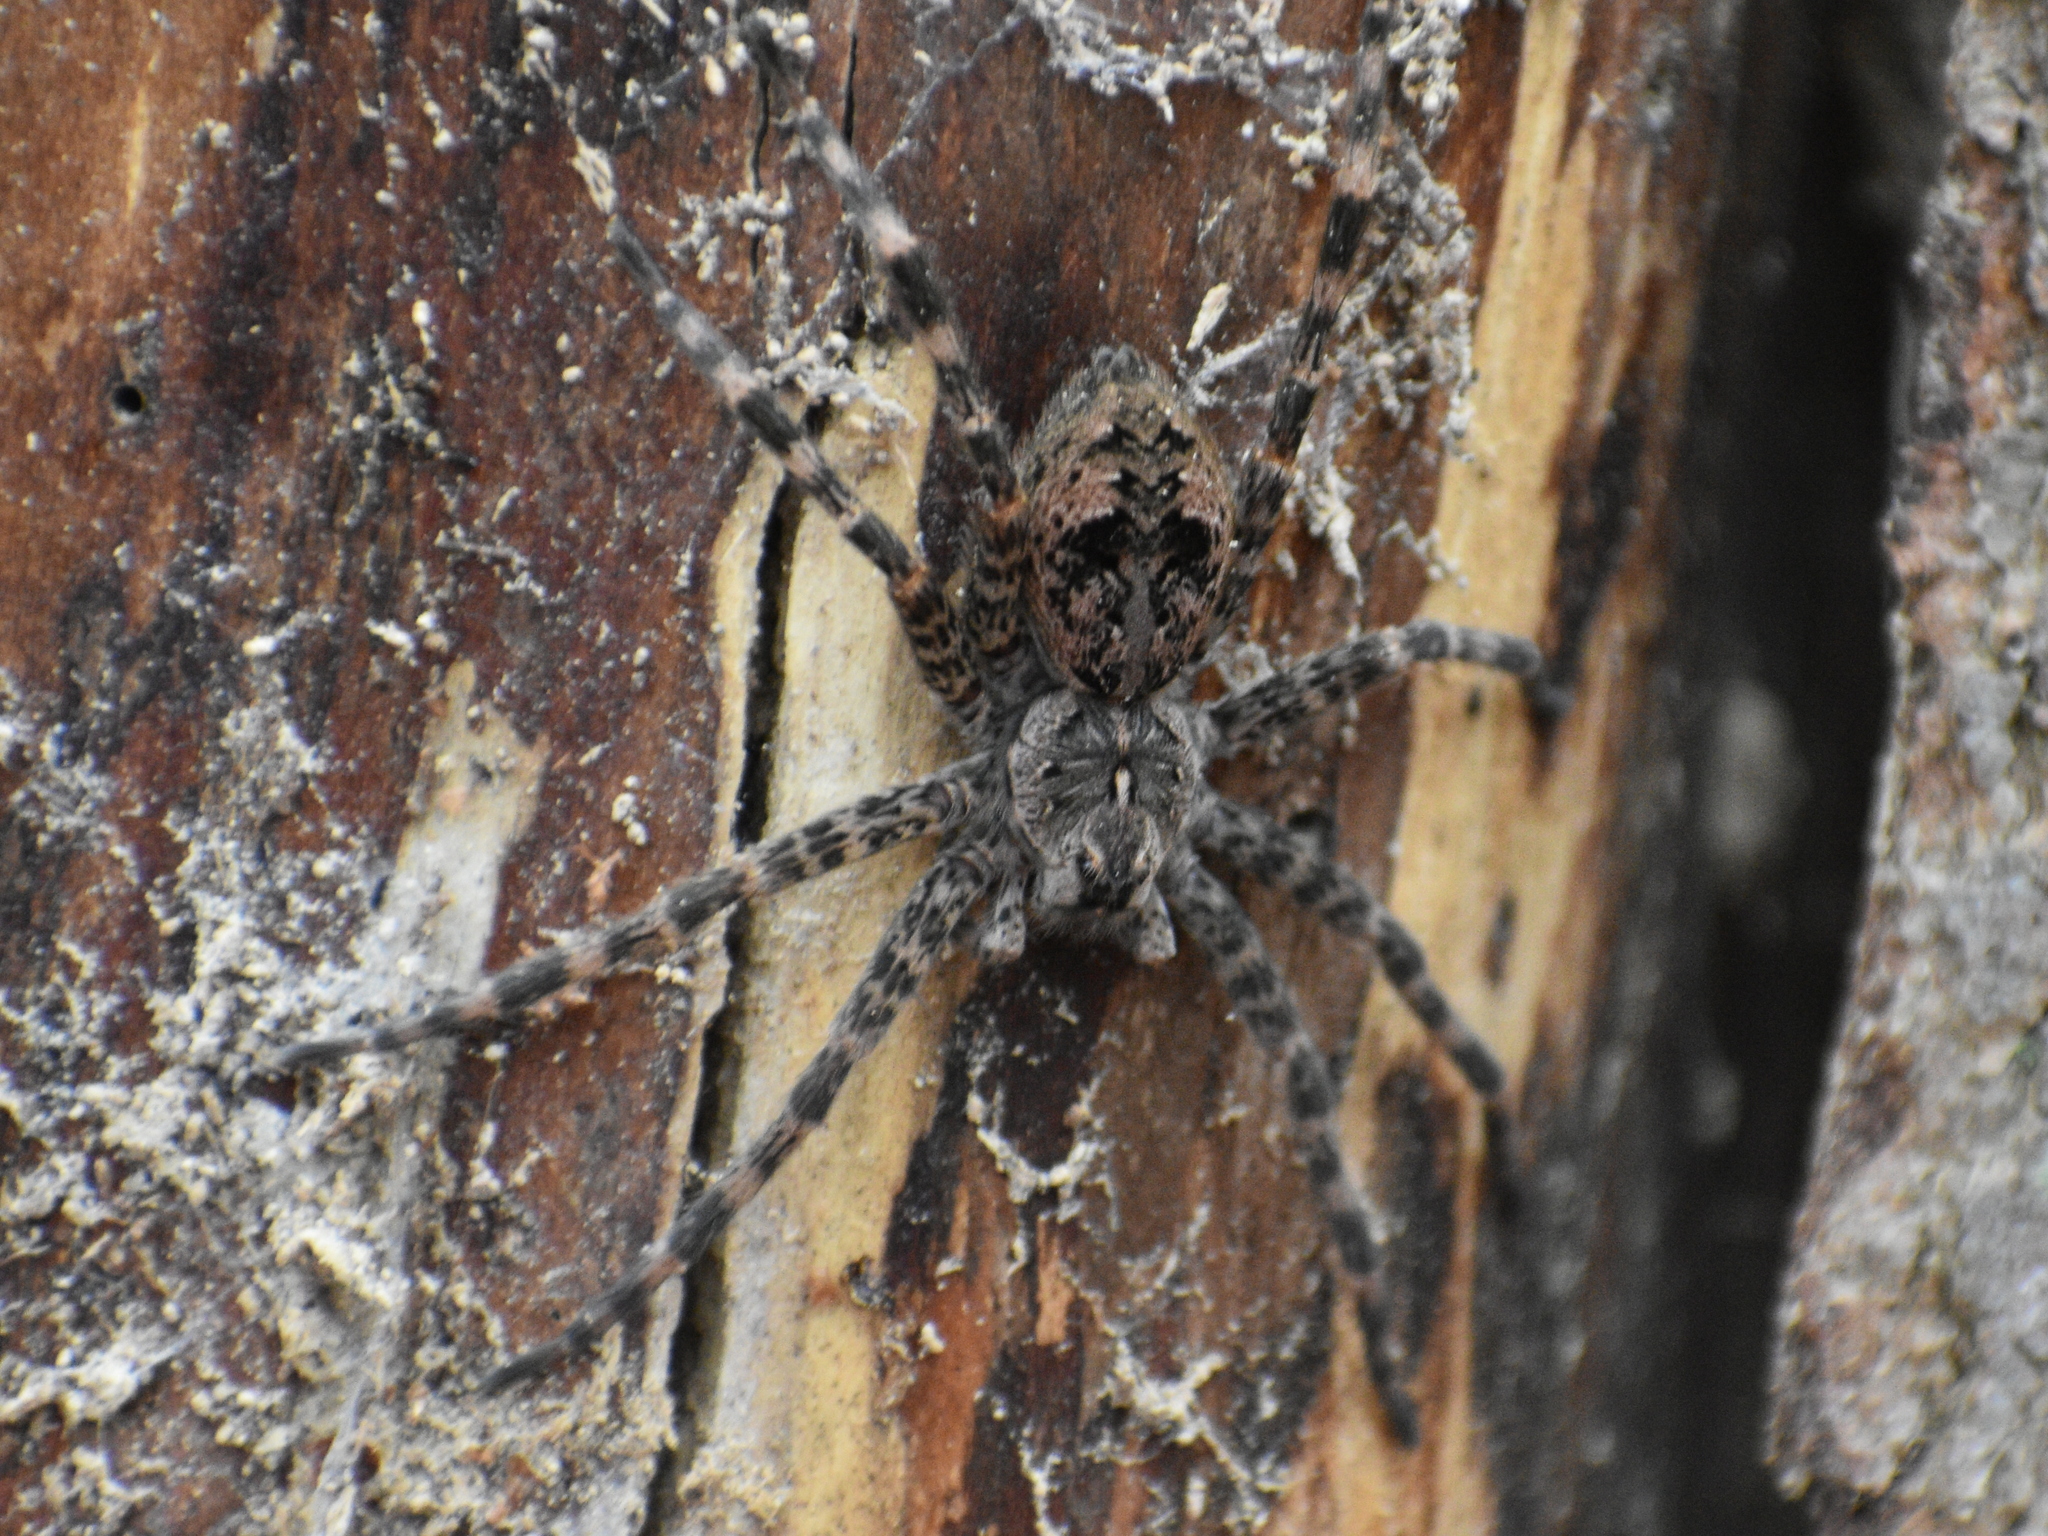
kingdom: Animalia
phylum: Arthropoda
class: Arachnida
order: Araneae
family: Pisauridae
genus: Dolomedes
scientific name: Dolomedes tenebrosus
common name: Dark fishing spider
